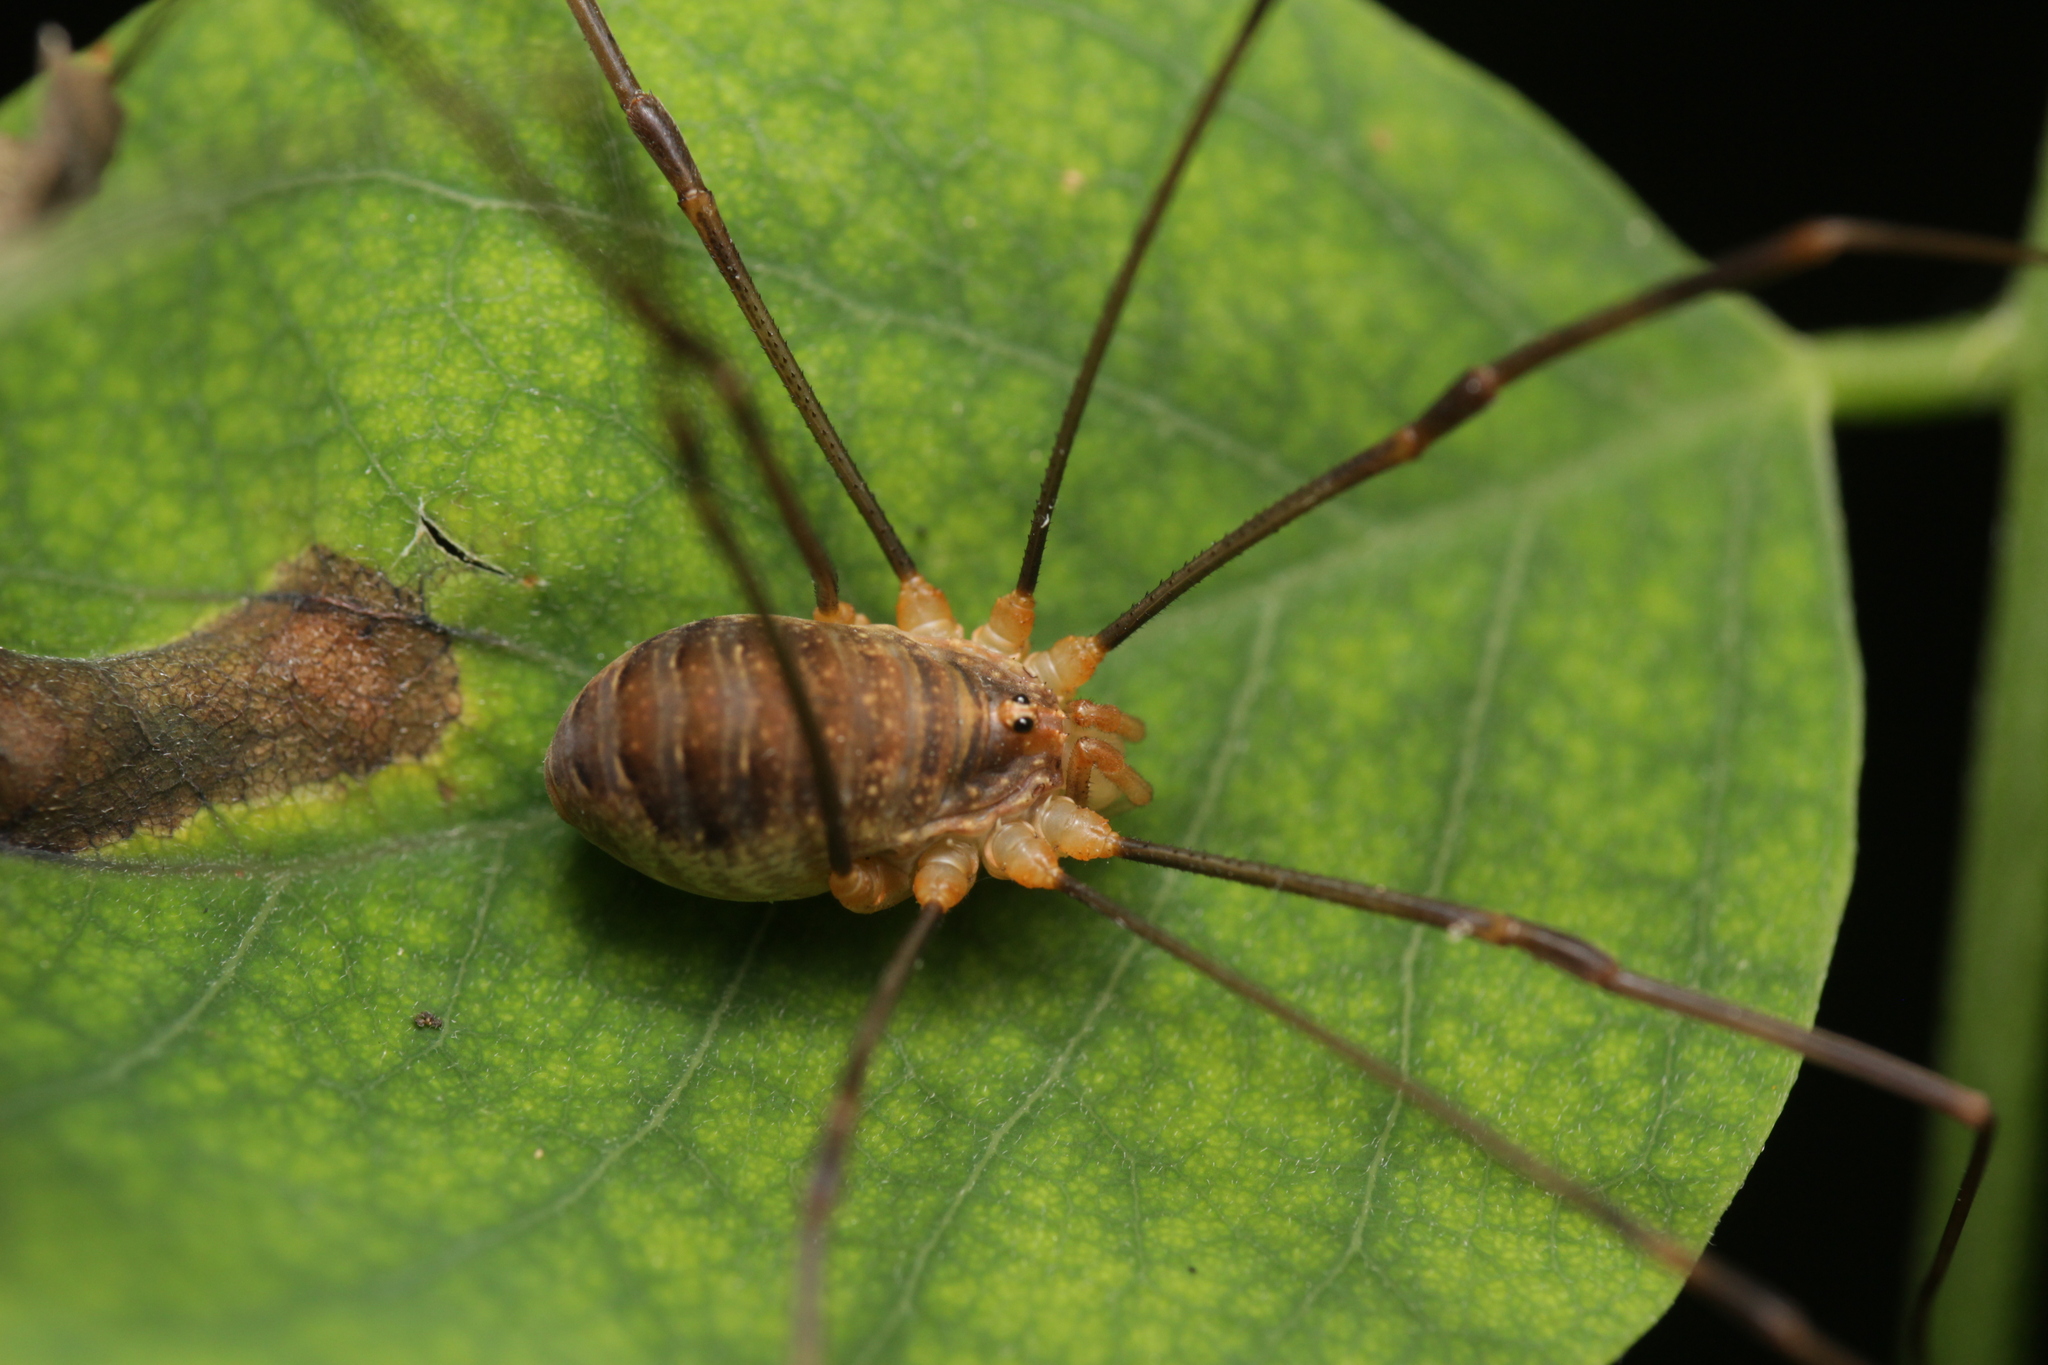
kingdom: Animalia
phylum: Arthropoda
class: Arachnida
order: Opiliones
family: Phalangiidae
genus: Opilio
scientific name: Opilio canestrinii
